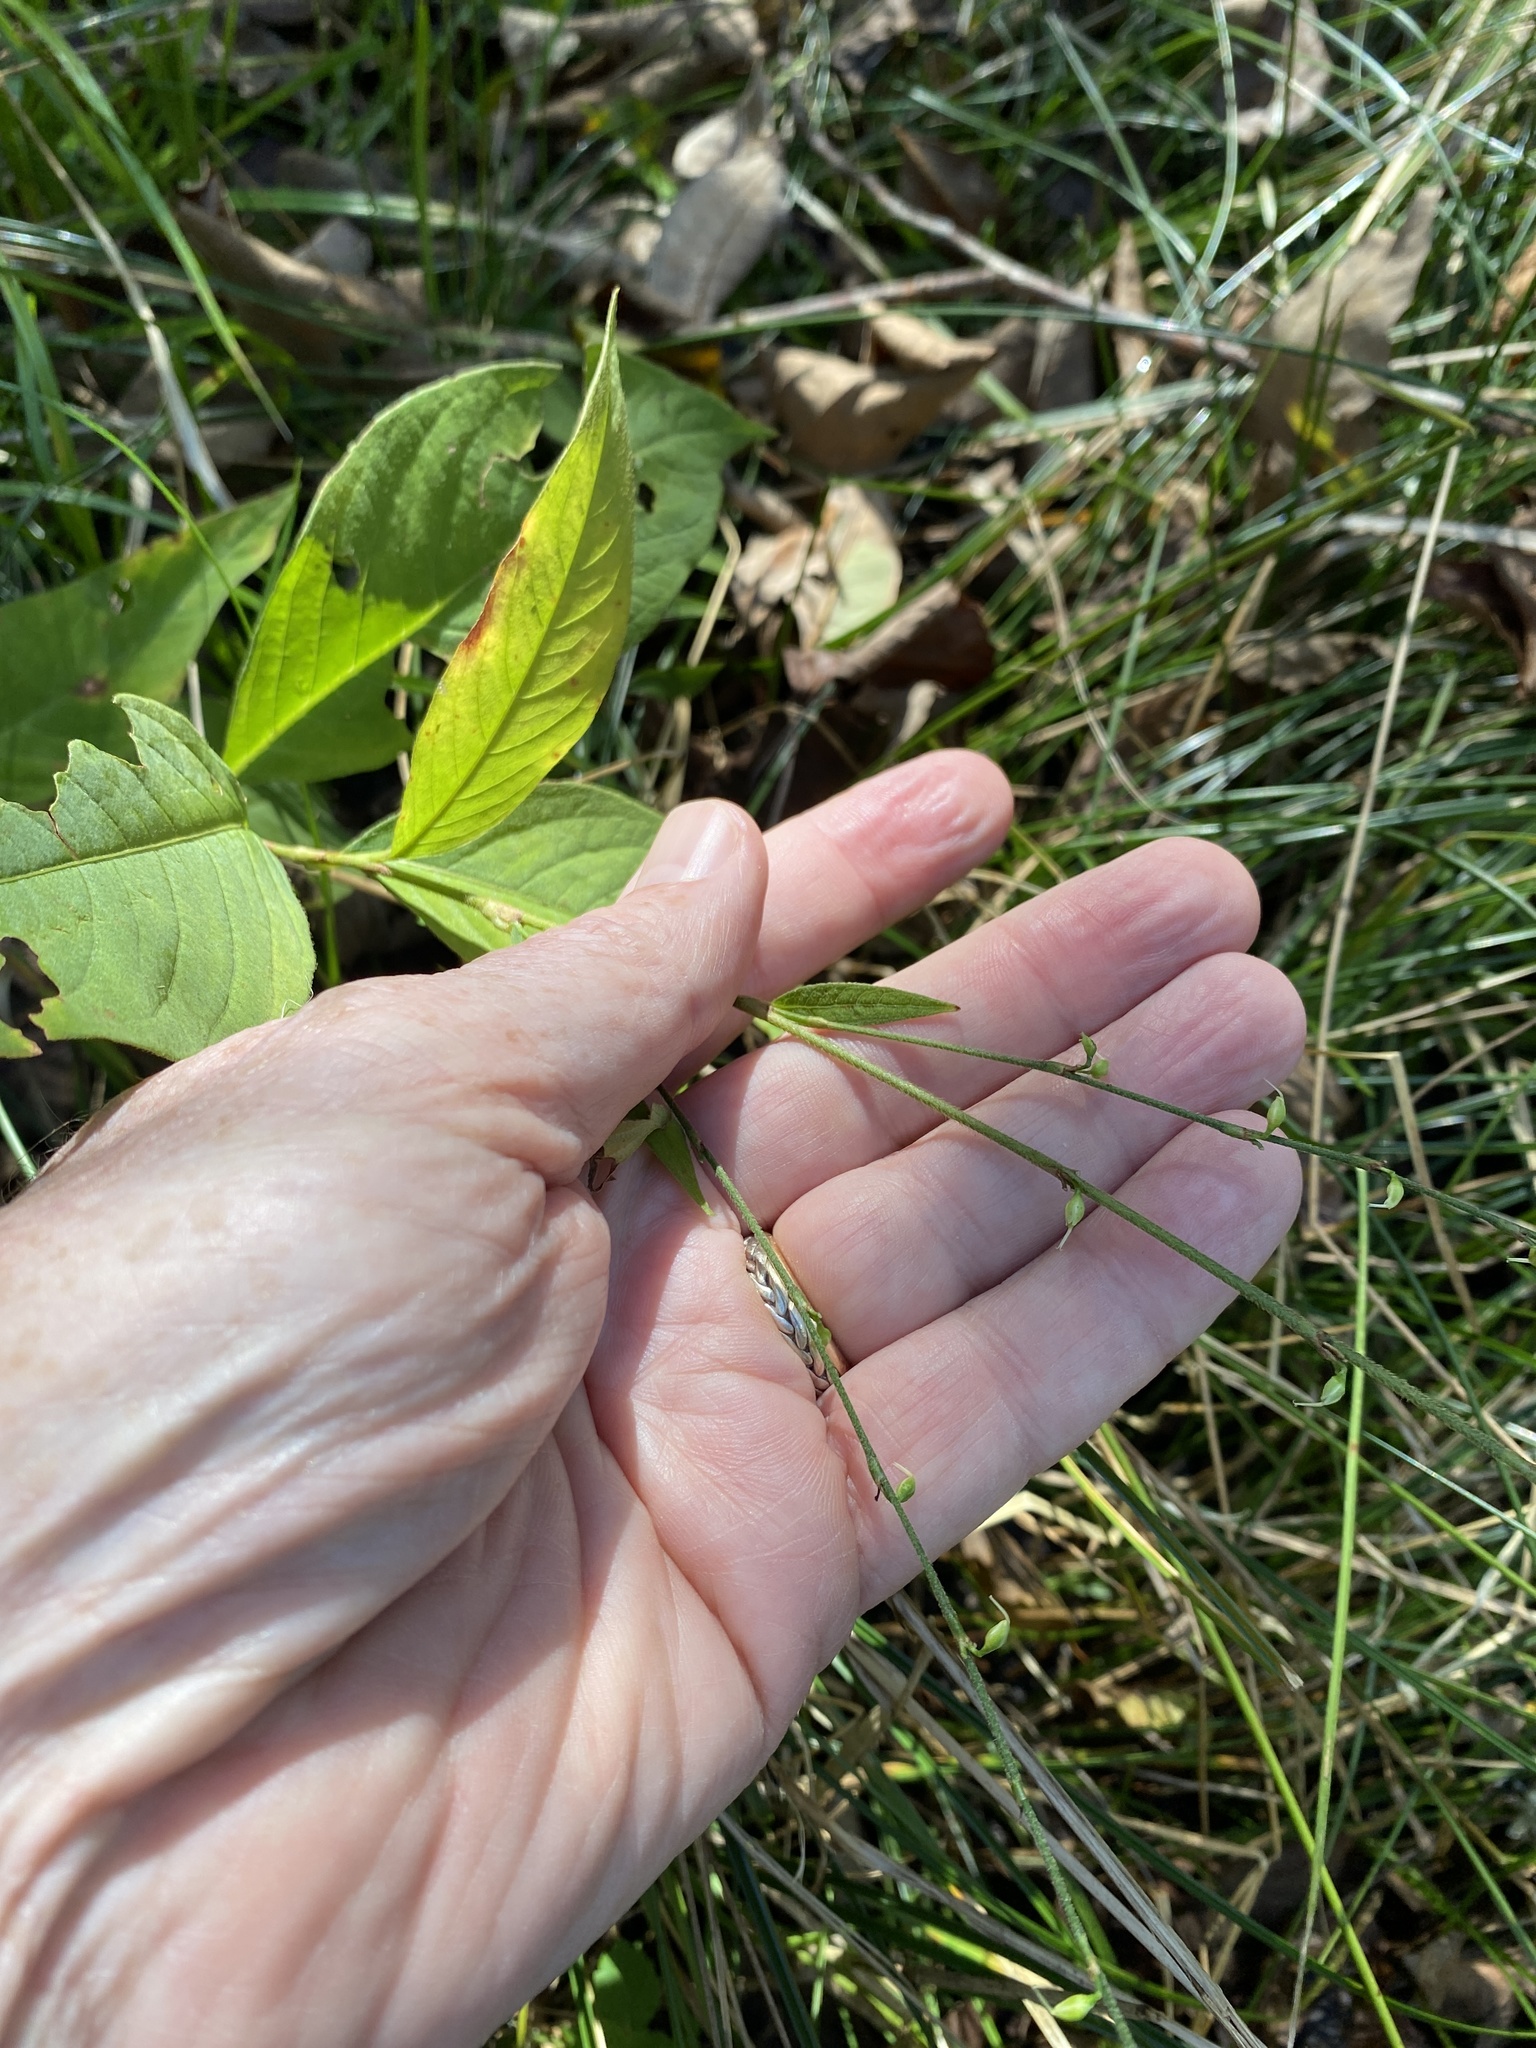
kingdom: Plantae
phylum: Tracheophyta
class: Magnoliopsida
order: Caryophyllales
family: Polygonaceae
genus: Persicaria
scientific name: Persicaria virginiana
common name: Jumpseed
